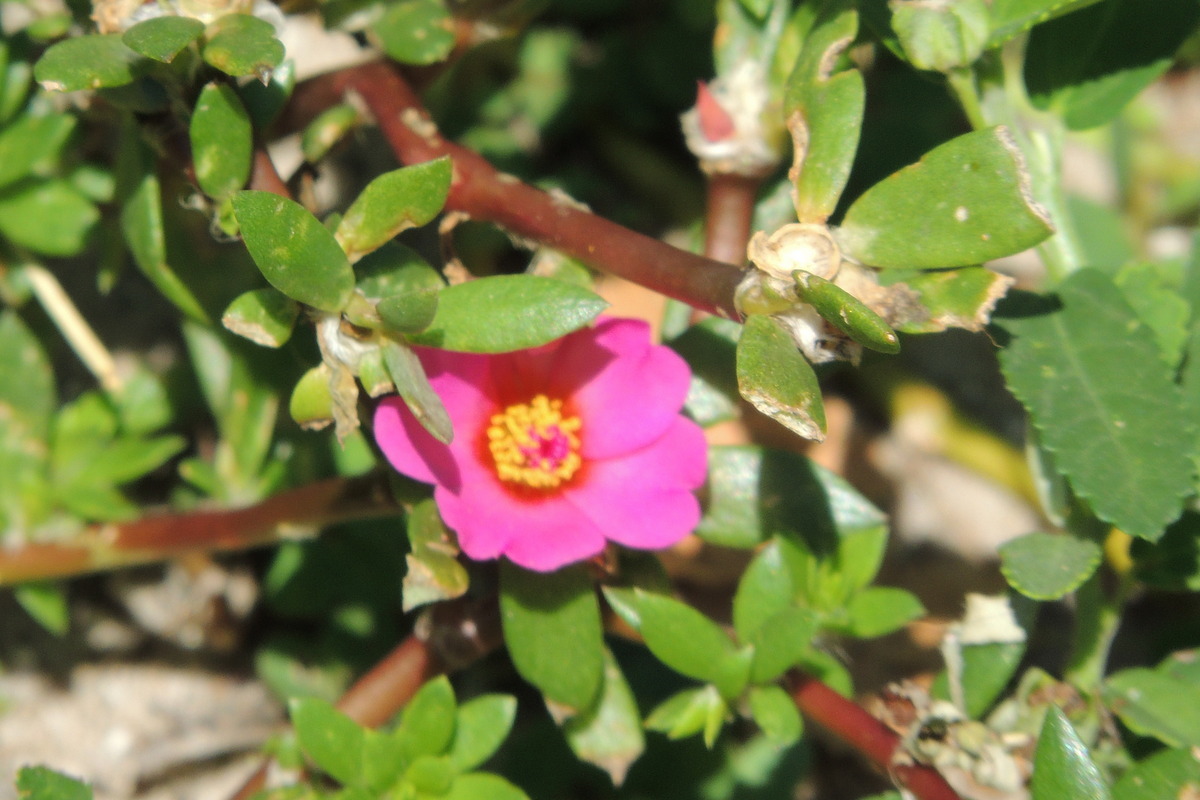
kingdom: Plantae
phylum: Tracheophyta
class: Magnoliopsida
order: Caryophyllales
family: Portulacaceae
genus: Portulaca
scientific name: Portulaca amilis
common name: Paraguayan purslane
